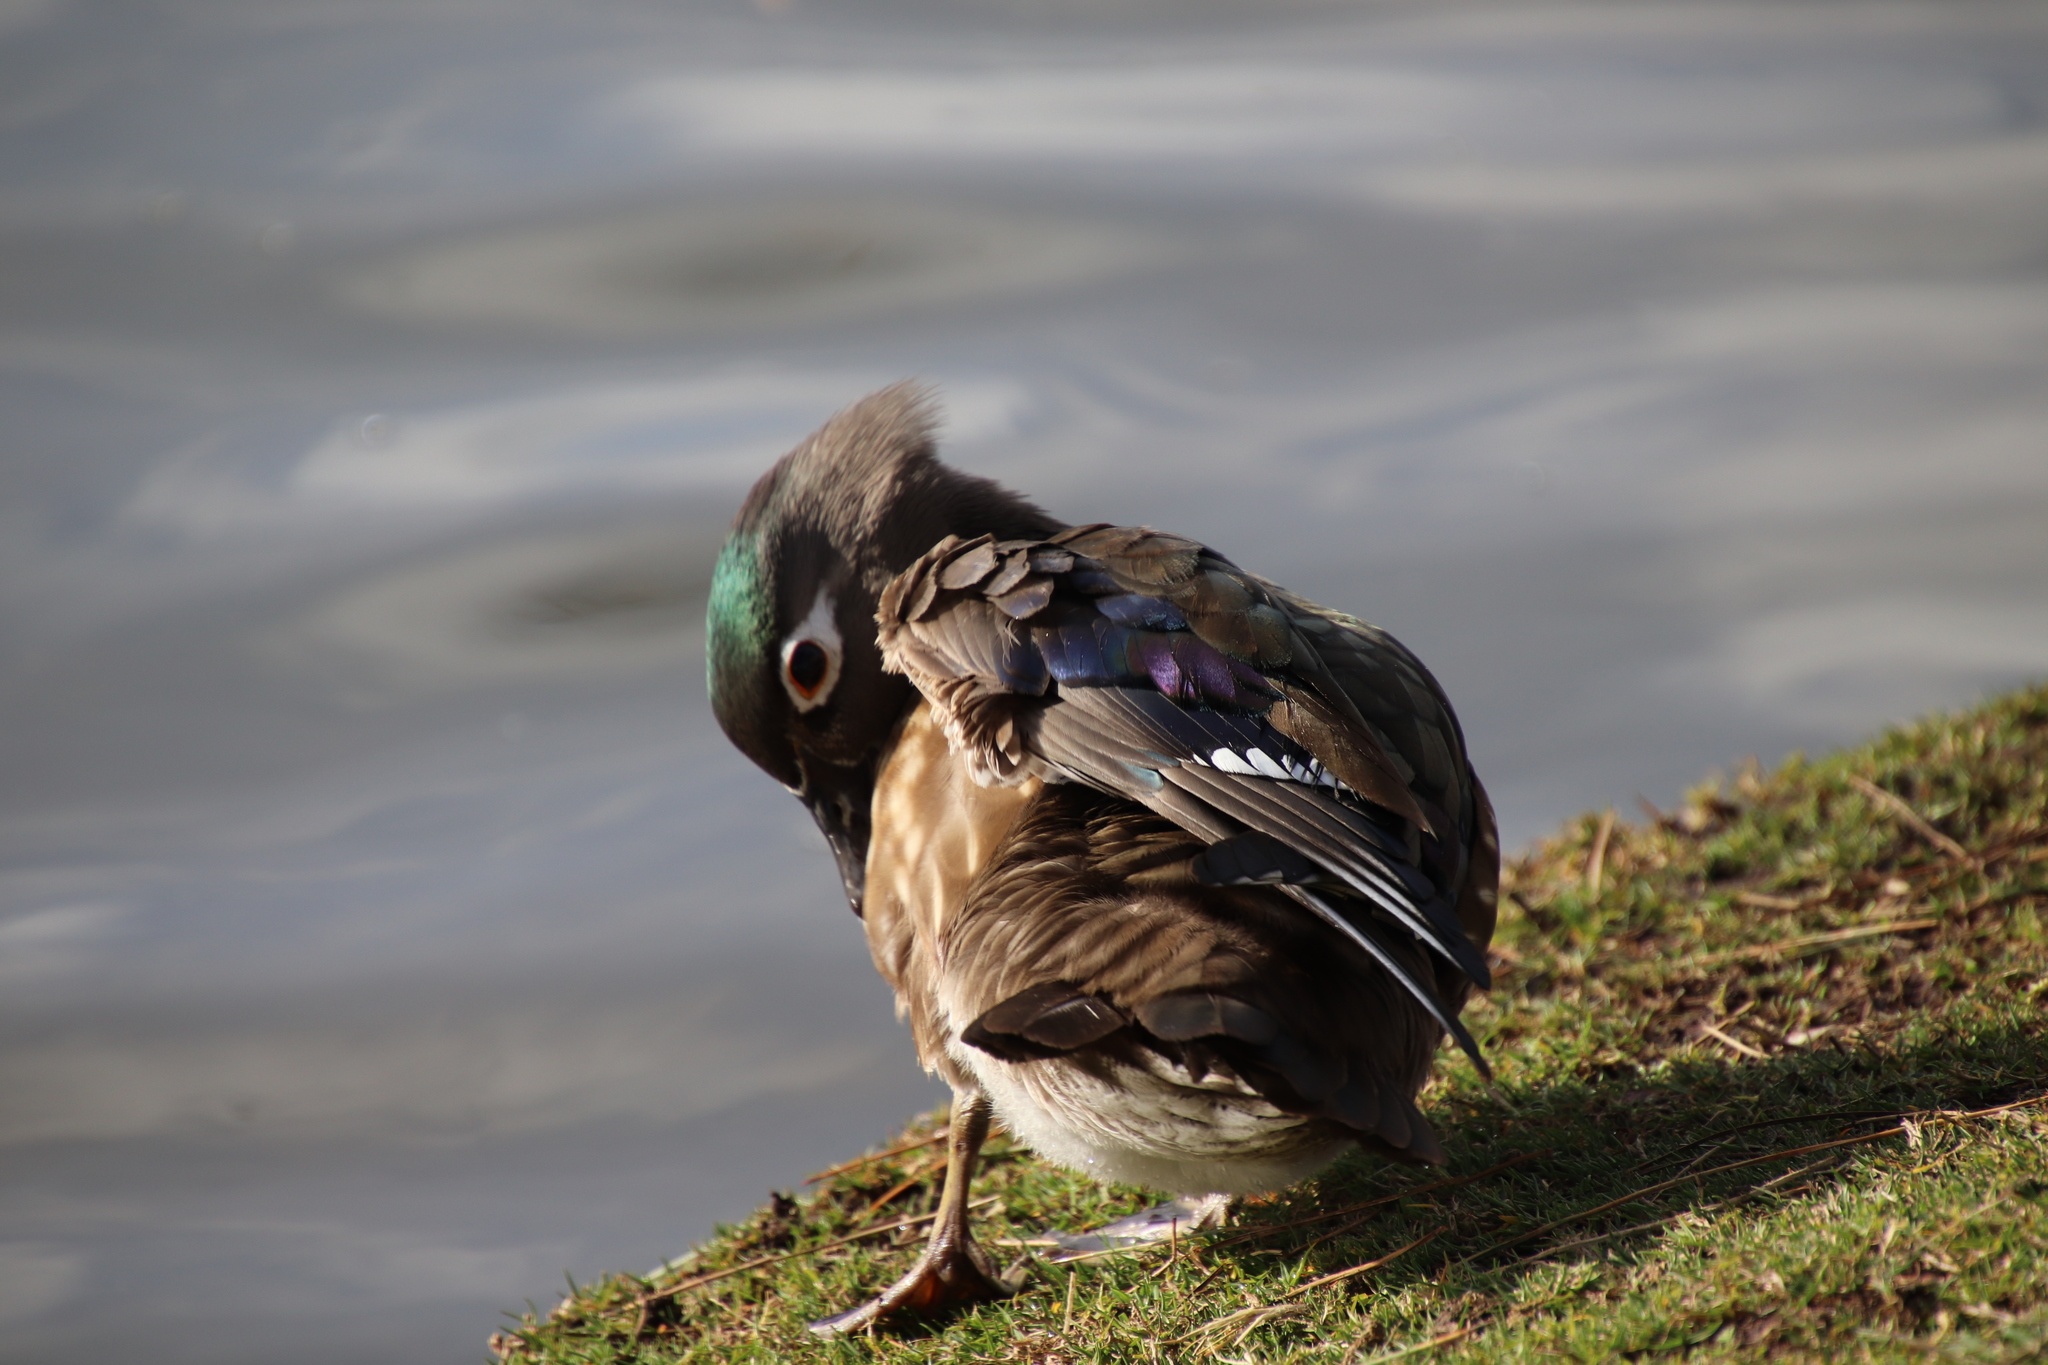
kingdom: Animalia
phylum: Chordata
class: Aves
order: Anseriformes
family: Anatidae
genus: Aix
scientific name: Aix sponsa
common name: Wood duck
